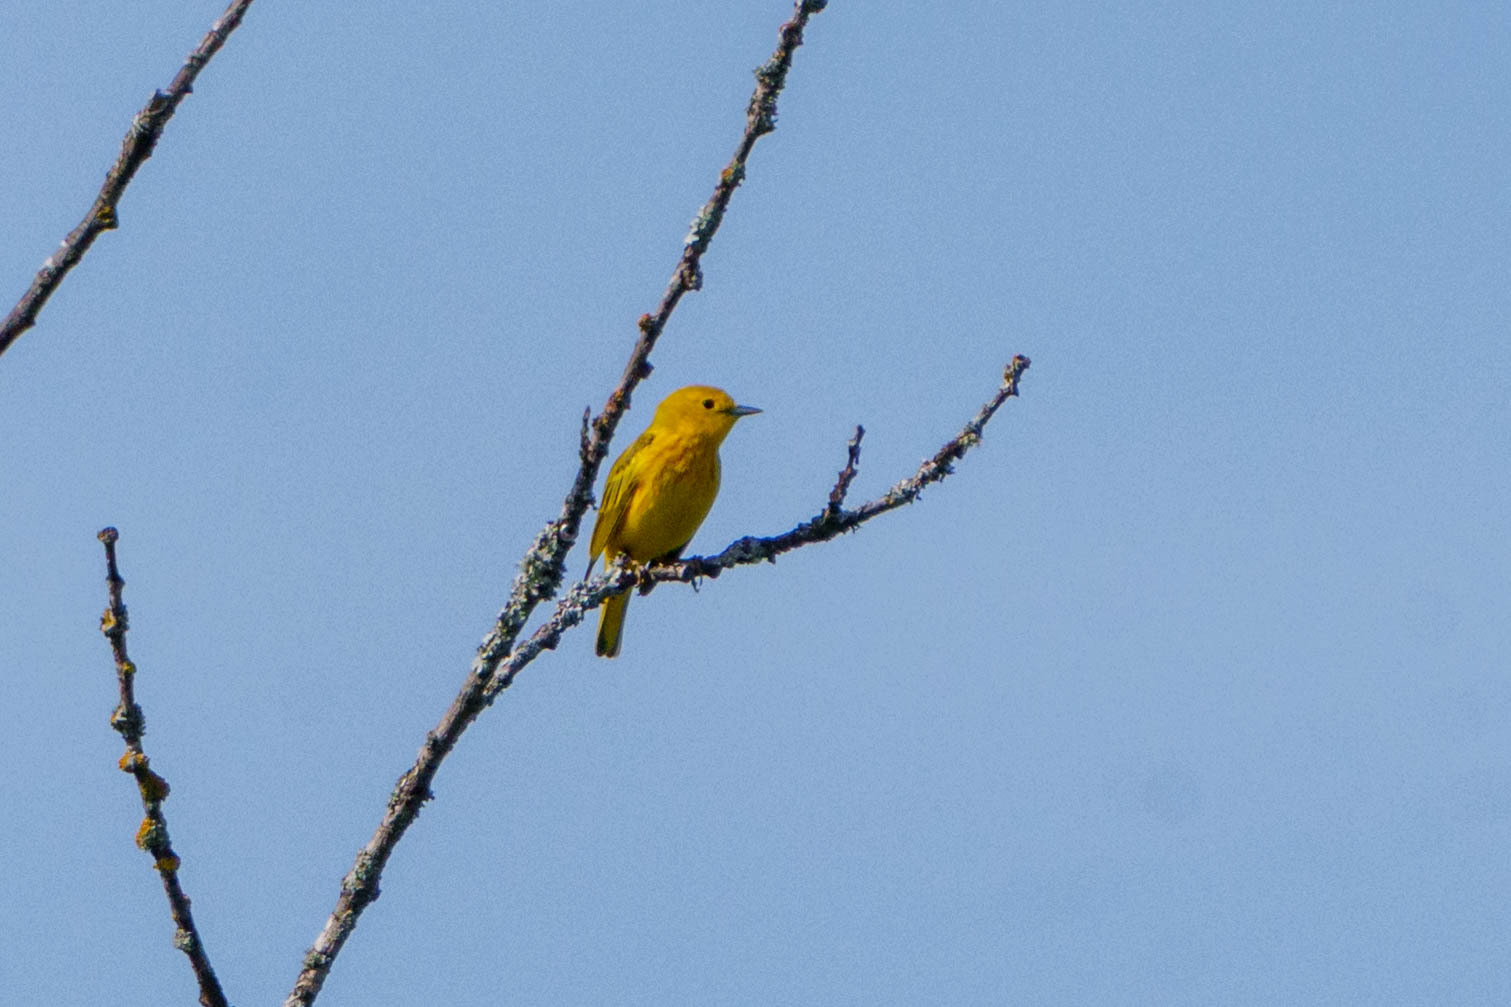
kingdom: Animalia
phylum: Chordata
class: Aves
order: Passeriformes
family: Parulidae
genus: Setophaga
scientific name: Setophaga petechia
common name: Yellow warbler
